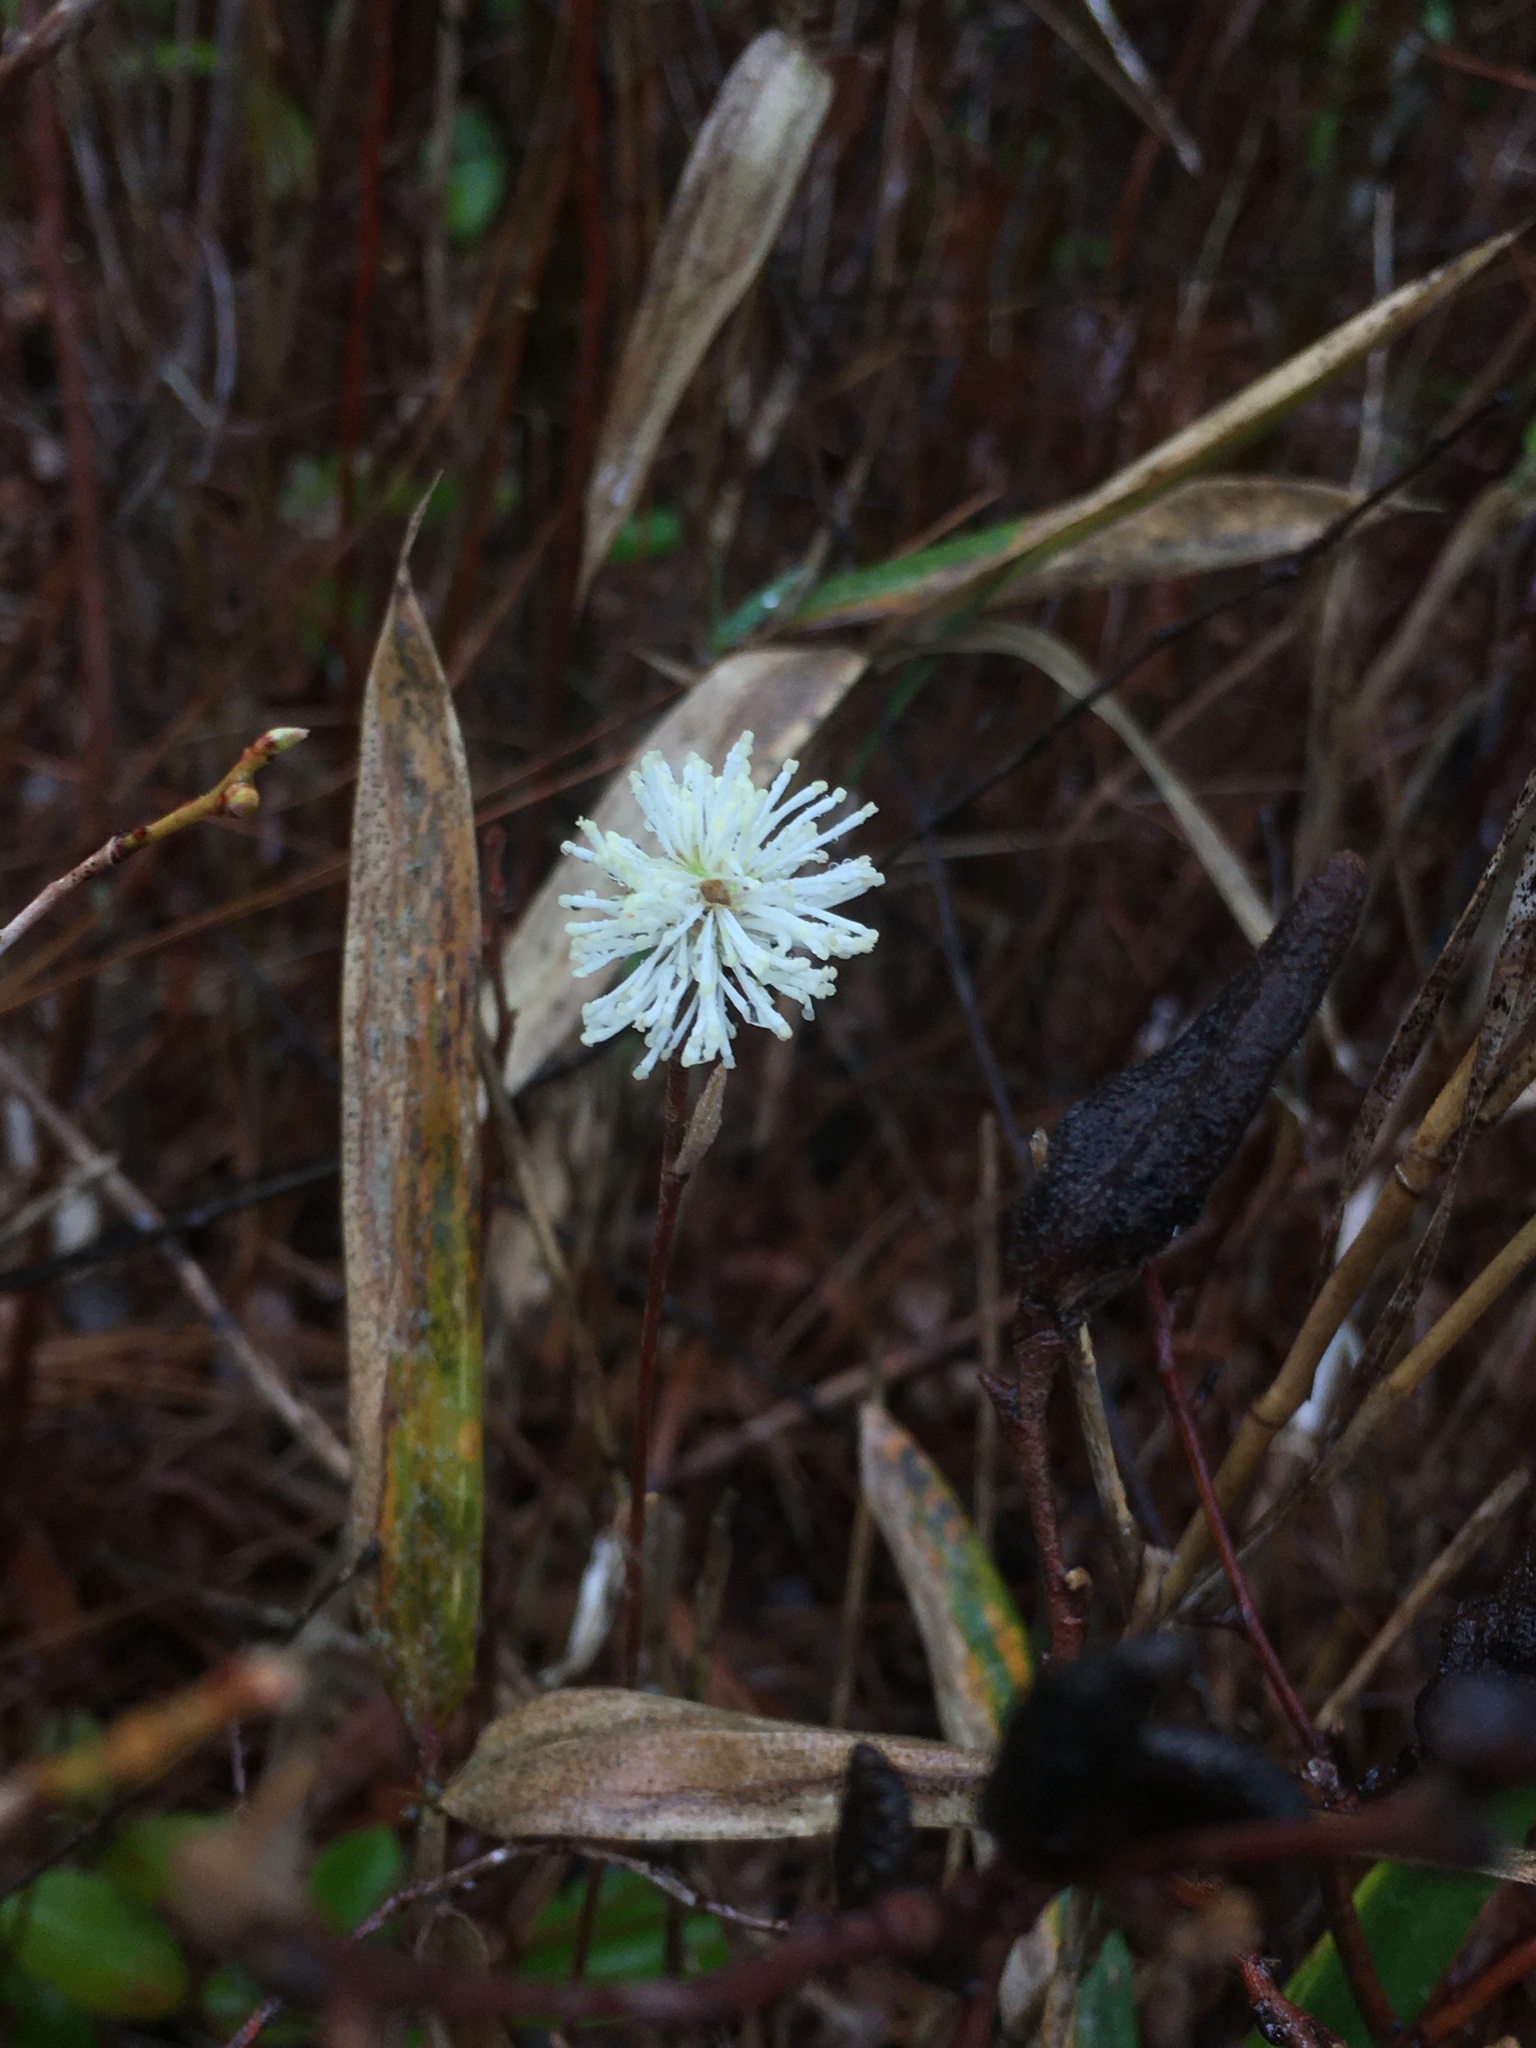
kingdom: Plantae
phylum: Tracheophyta
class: Magnoliopsida
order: Saxifragales
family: Hamamelidaceae
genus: Fothergilla
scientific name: Fothergilla gardenii
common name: Dwarf witch-alder
